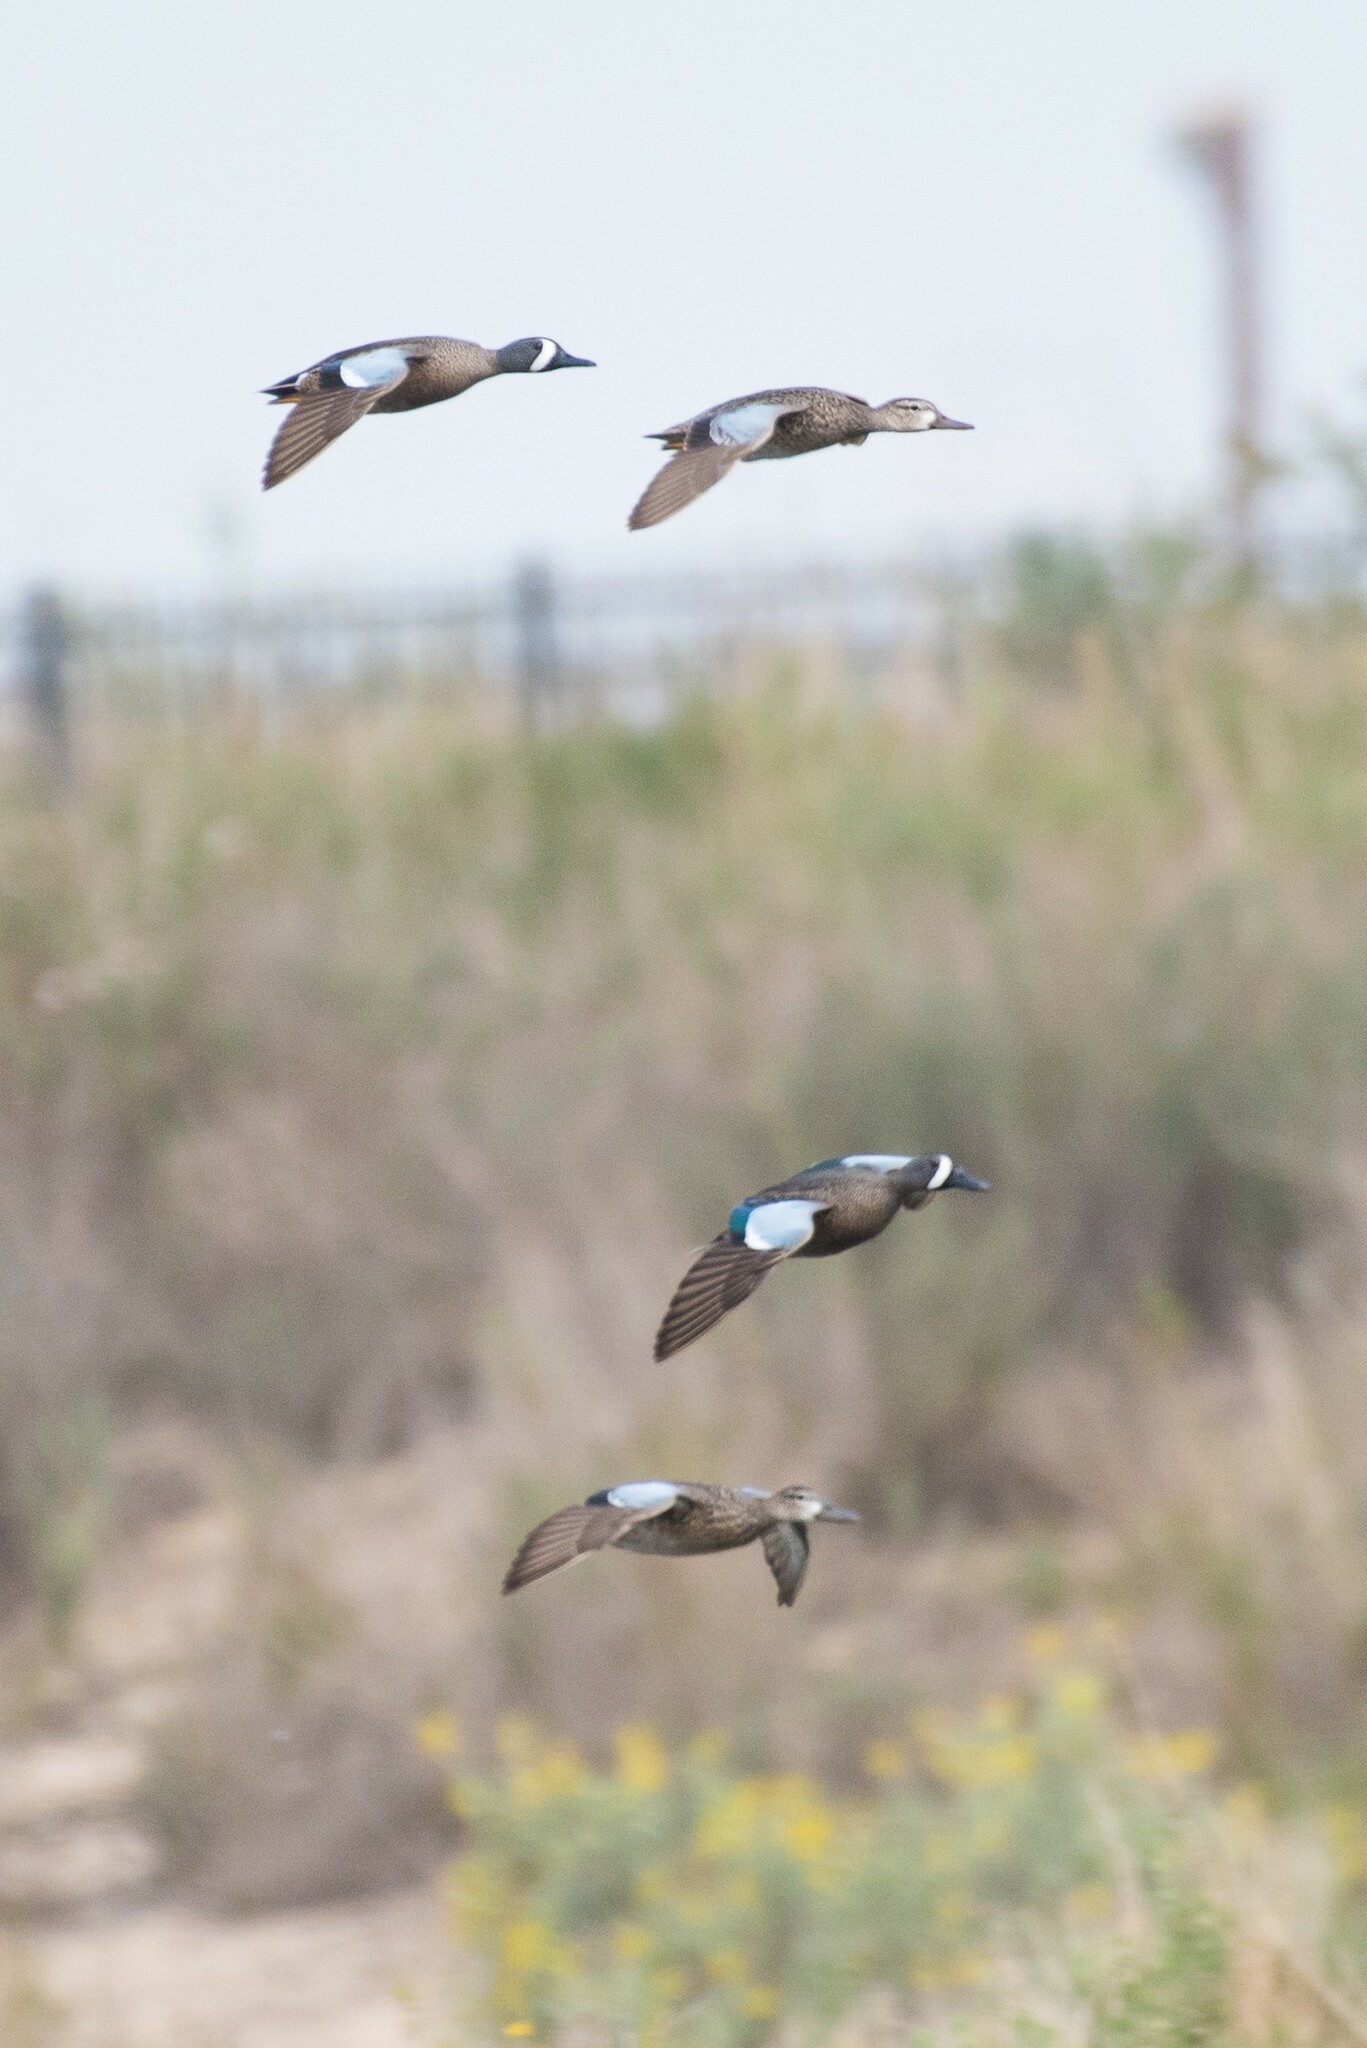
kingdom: Animalia
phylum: Chordata
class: Aves
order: Anseriformes
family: Anatidae
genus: Spatula
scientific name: Spatula discors
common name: Blue-winged teal
